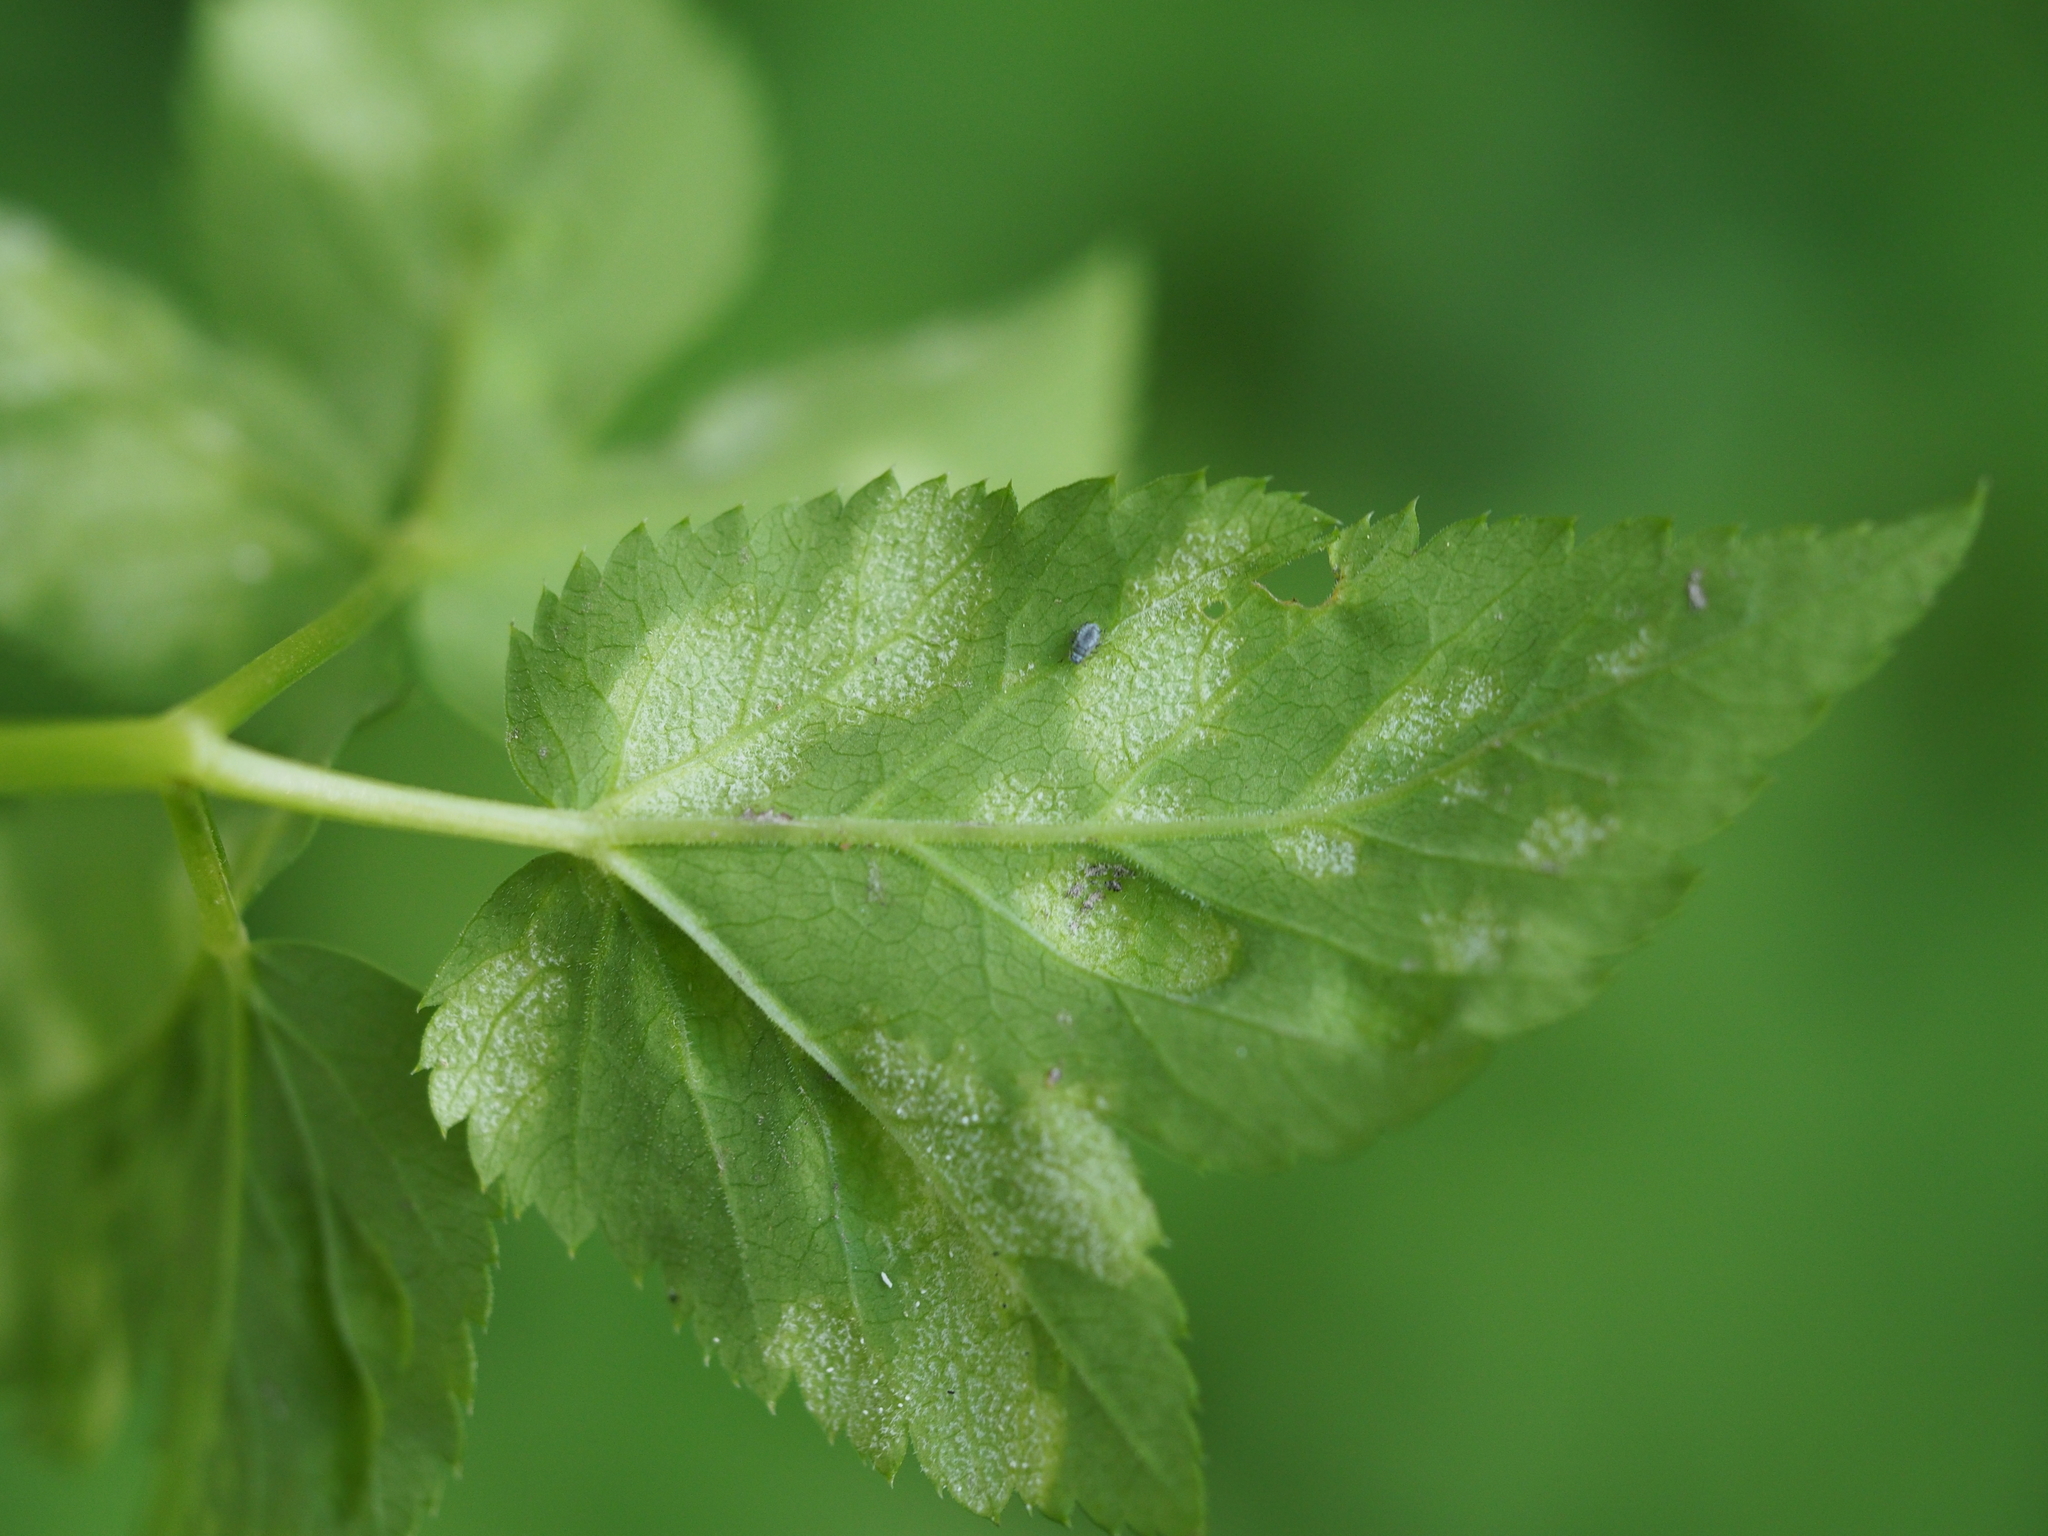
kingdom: Chromista
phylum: Oomycota
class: Peronosporea
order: Peronosporales
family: Peronosporaceae
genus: Peronospora
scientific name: Peronospora crustosa
